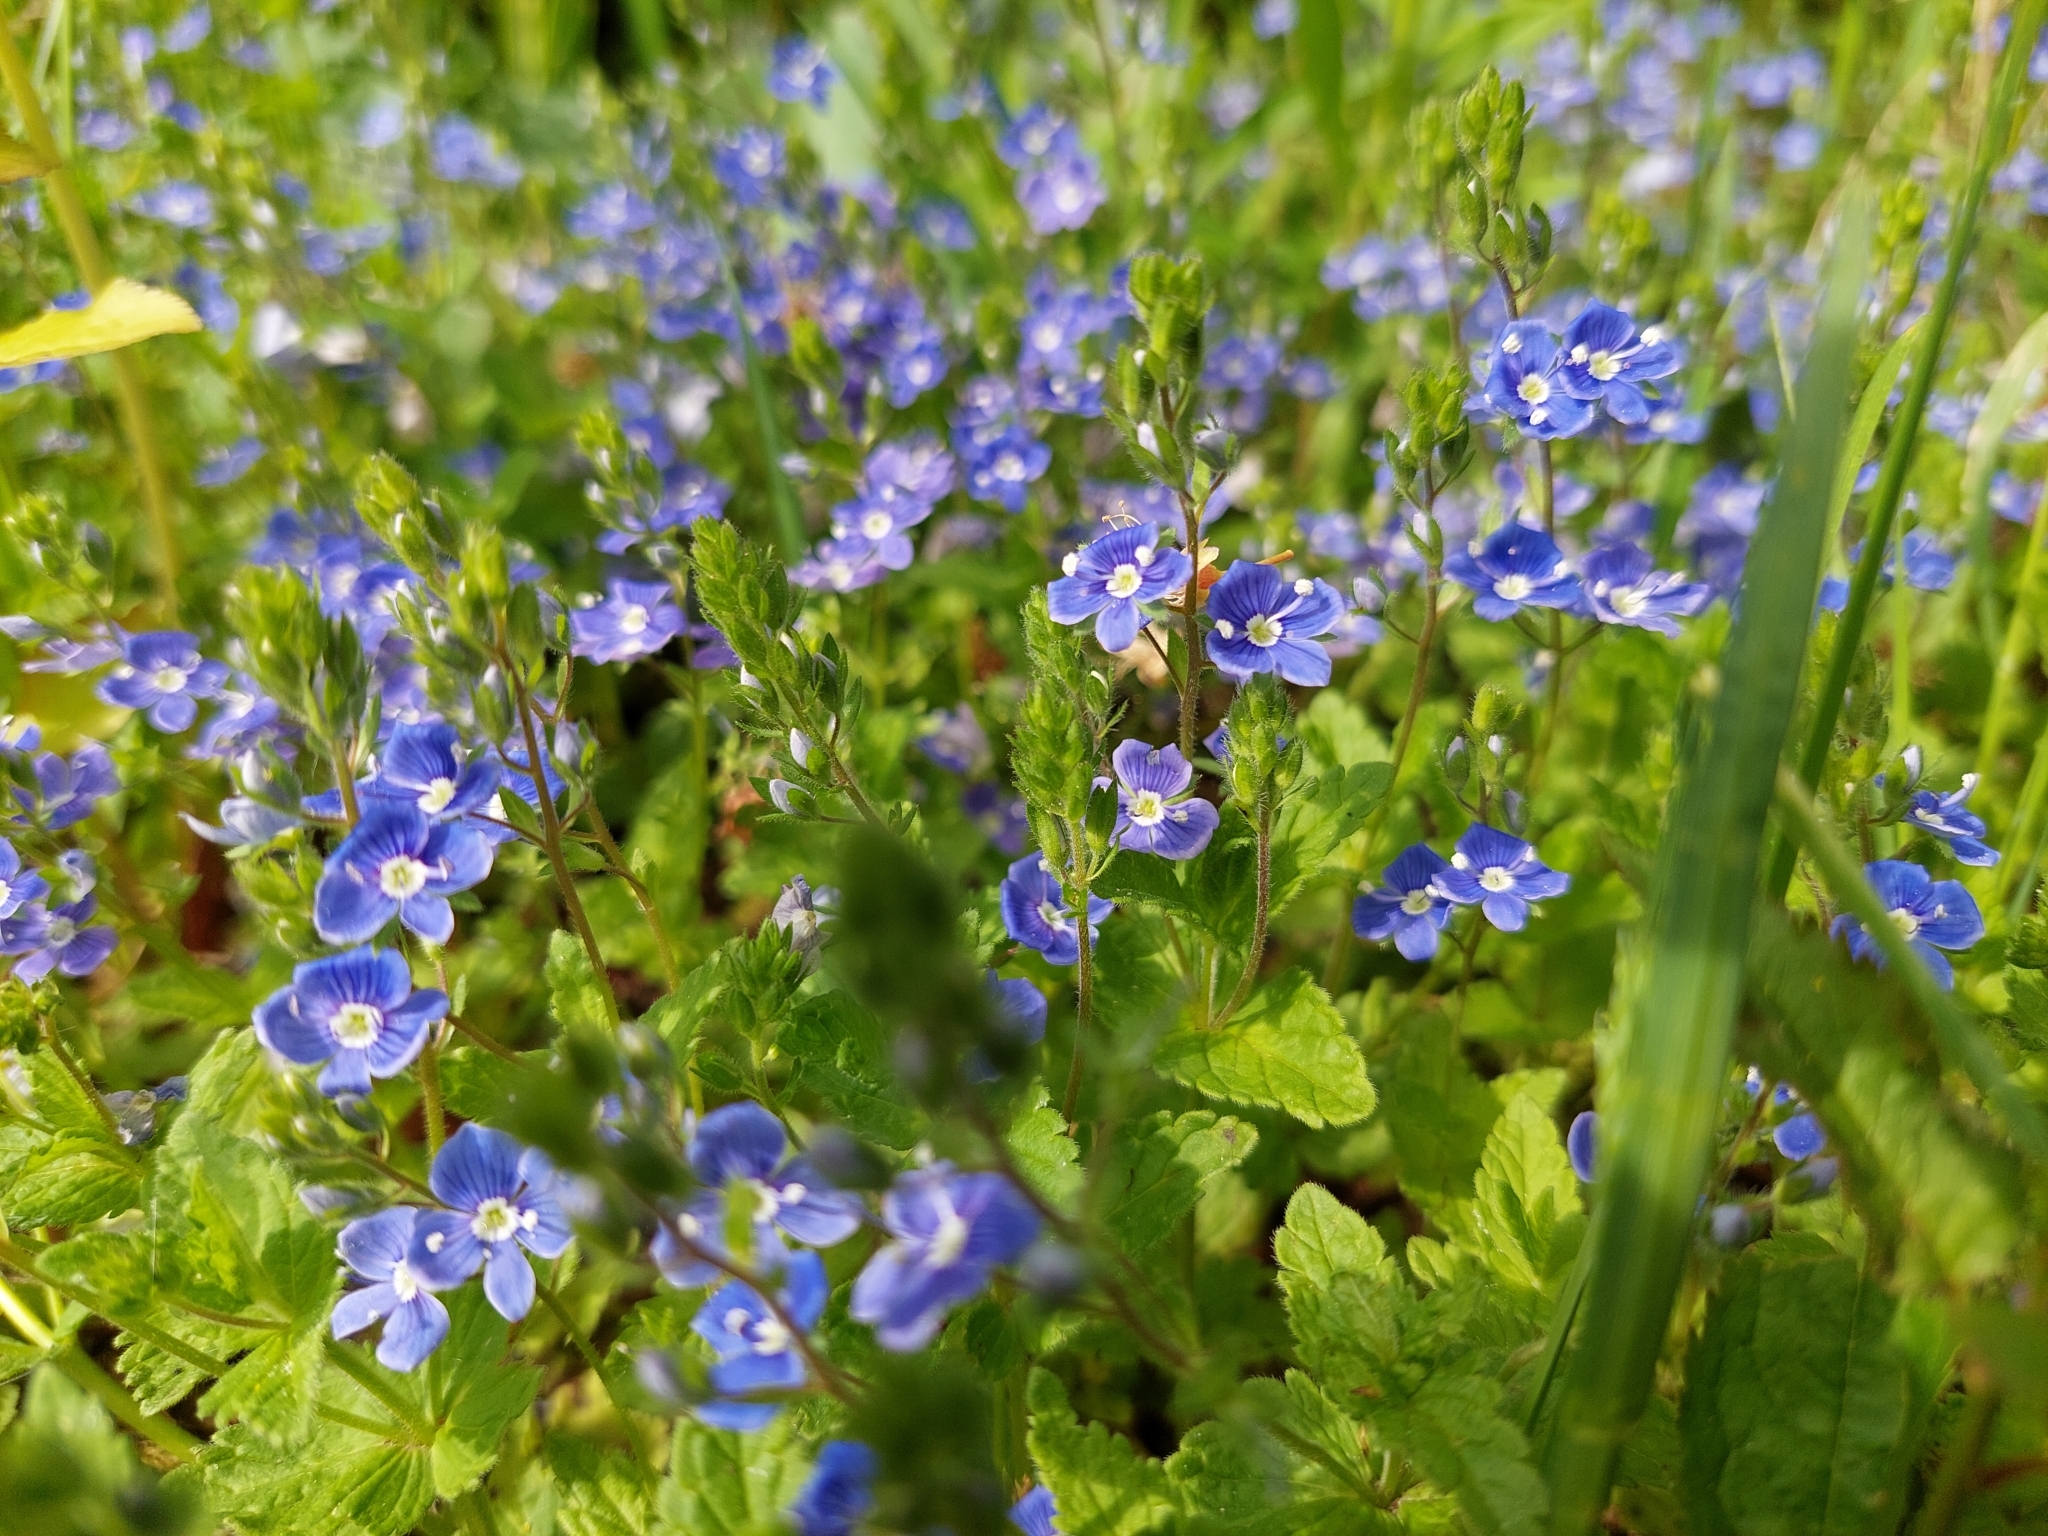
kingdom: Plantae
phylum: Tracheophyta
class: Magnoliopsida
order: Lamiales
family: Plantaginaceae
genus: Veronica
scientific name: Veronica chamaedrys
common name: Germander speedwell
